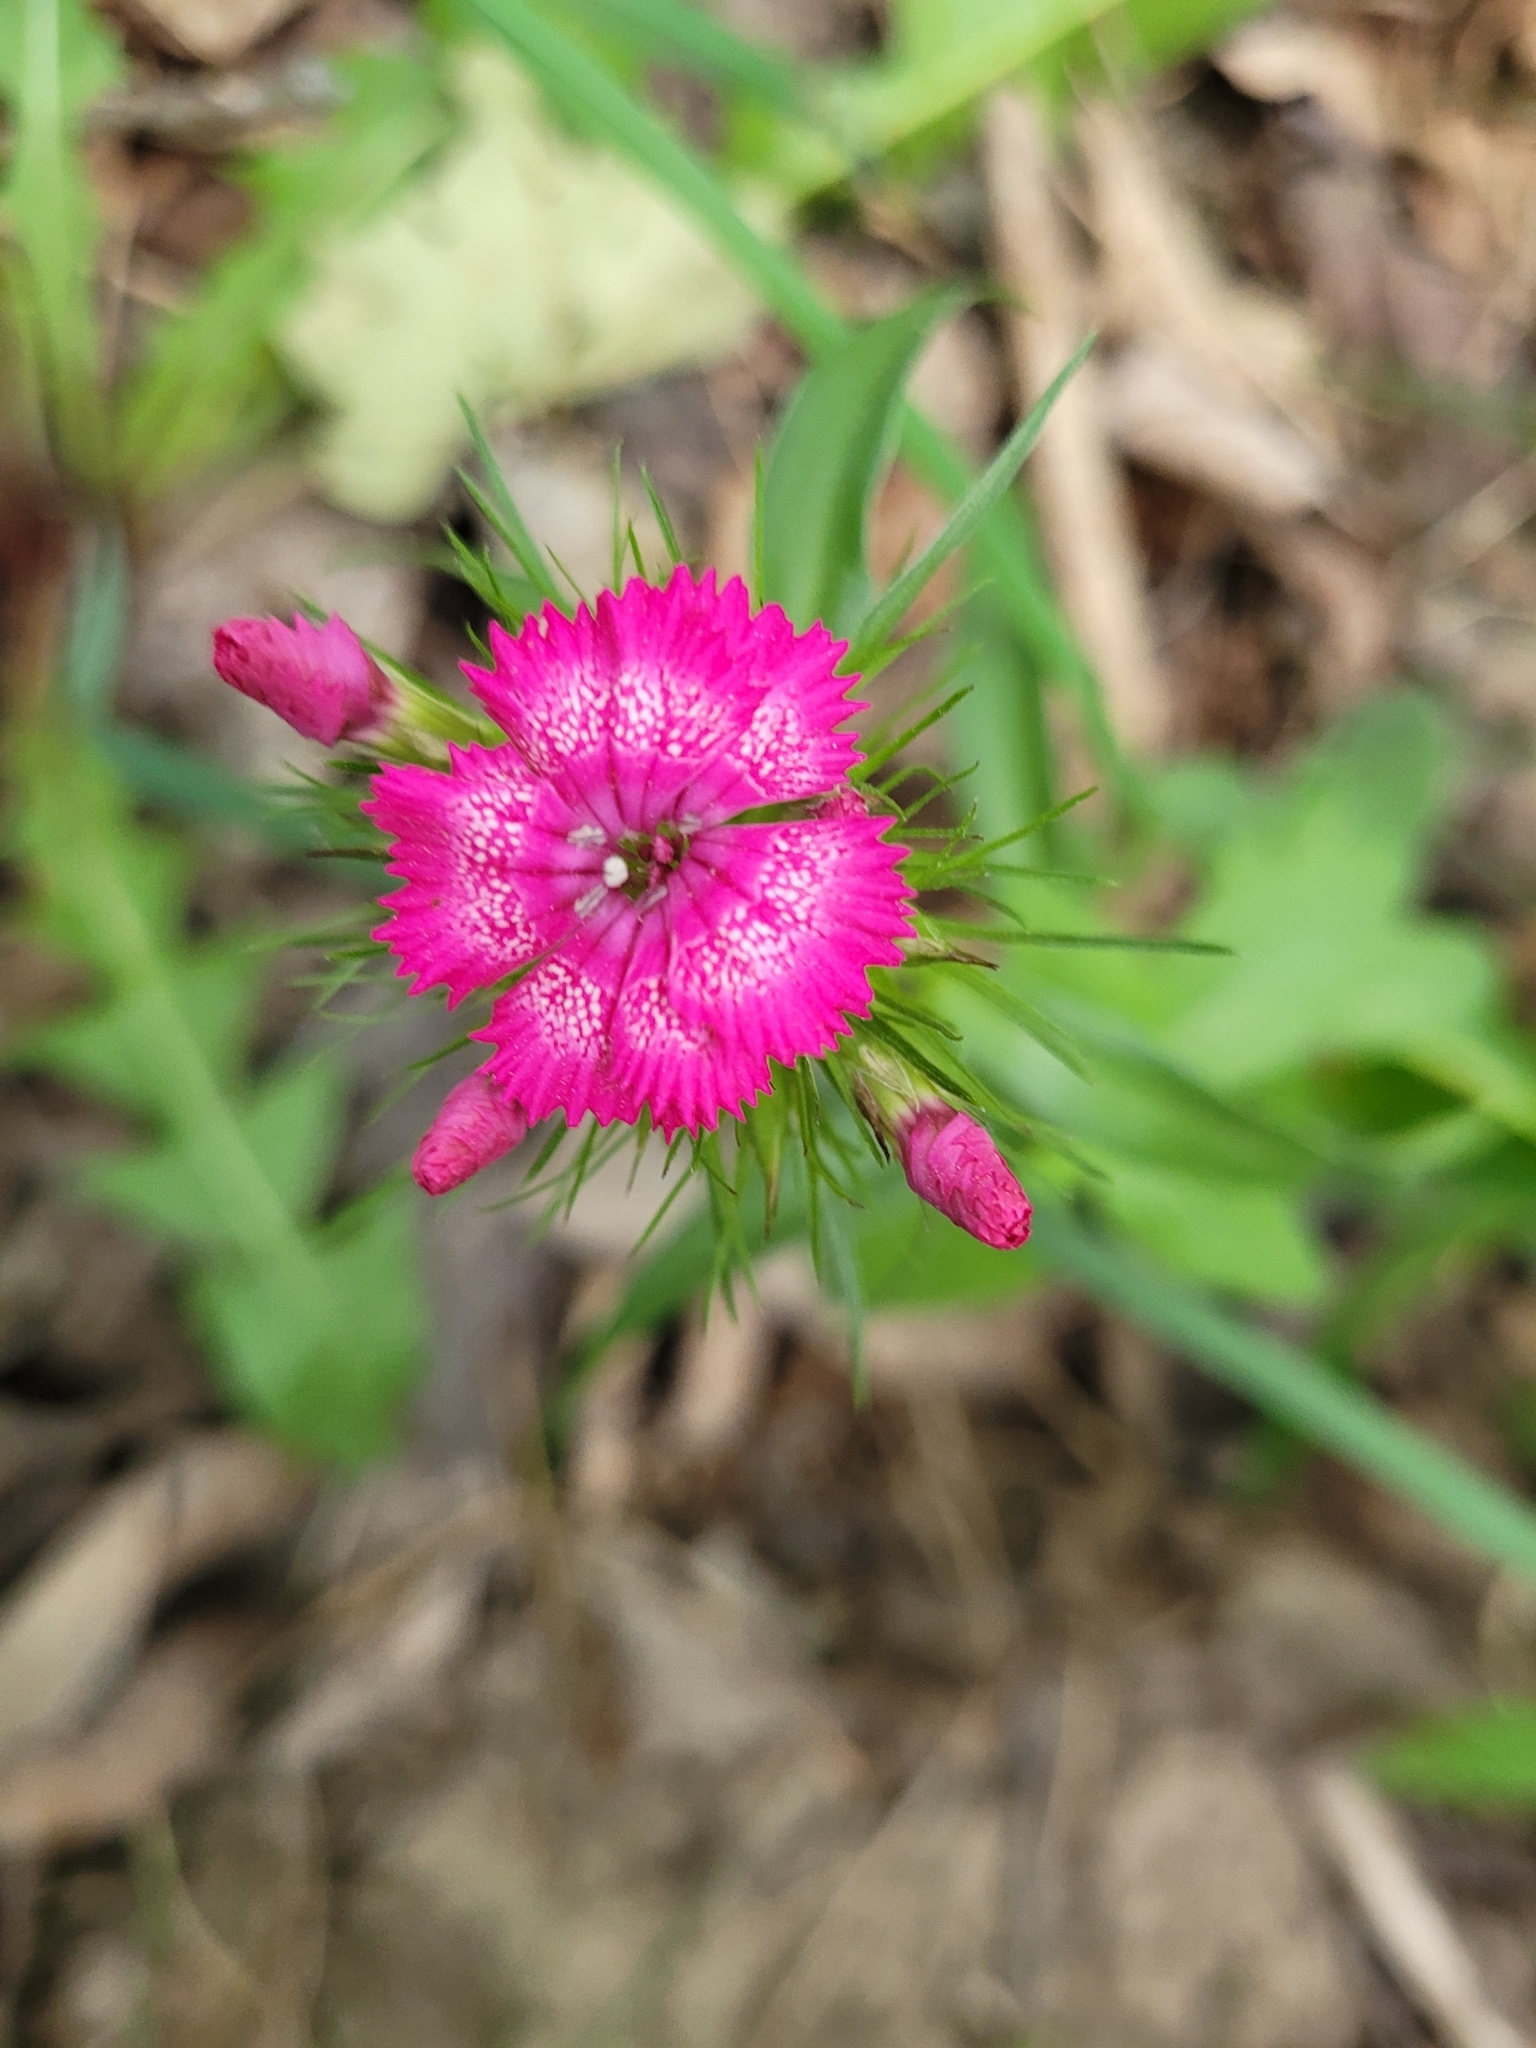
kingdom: Plantae
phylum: Tracheophyta
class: Magnoliopsida
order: Caryophyllales
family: Caryophyllaceae
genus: Dianthus
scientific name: Dianthus barbatus
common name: Sweet-william
